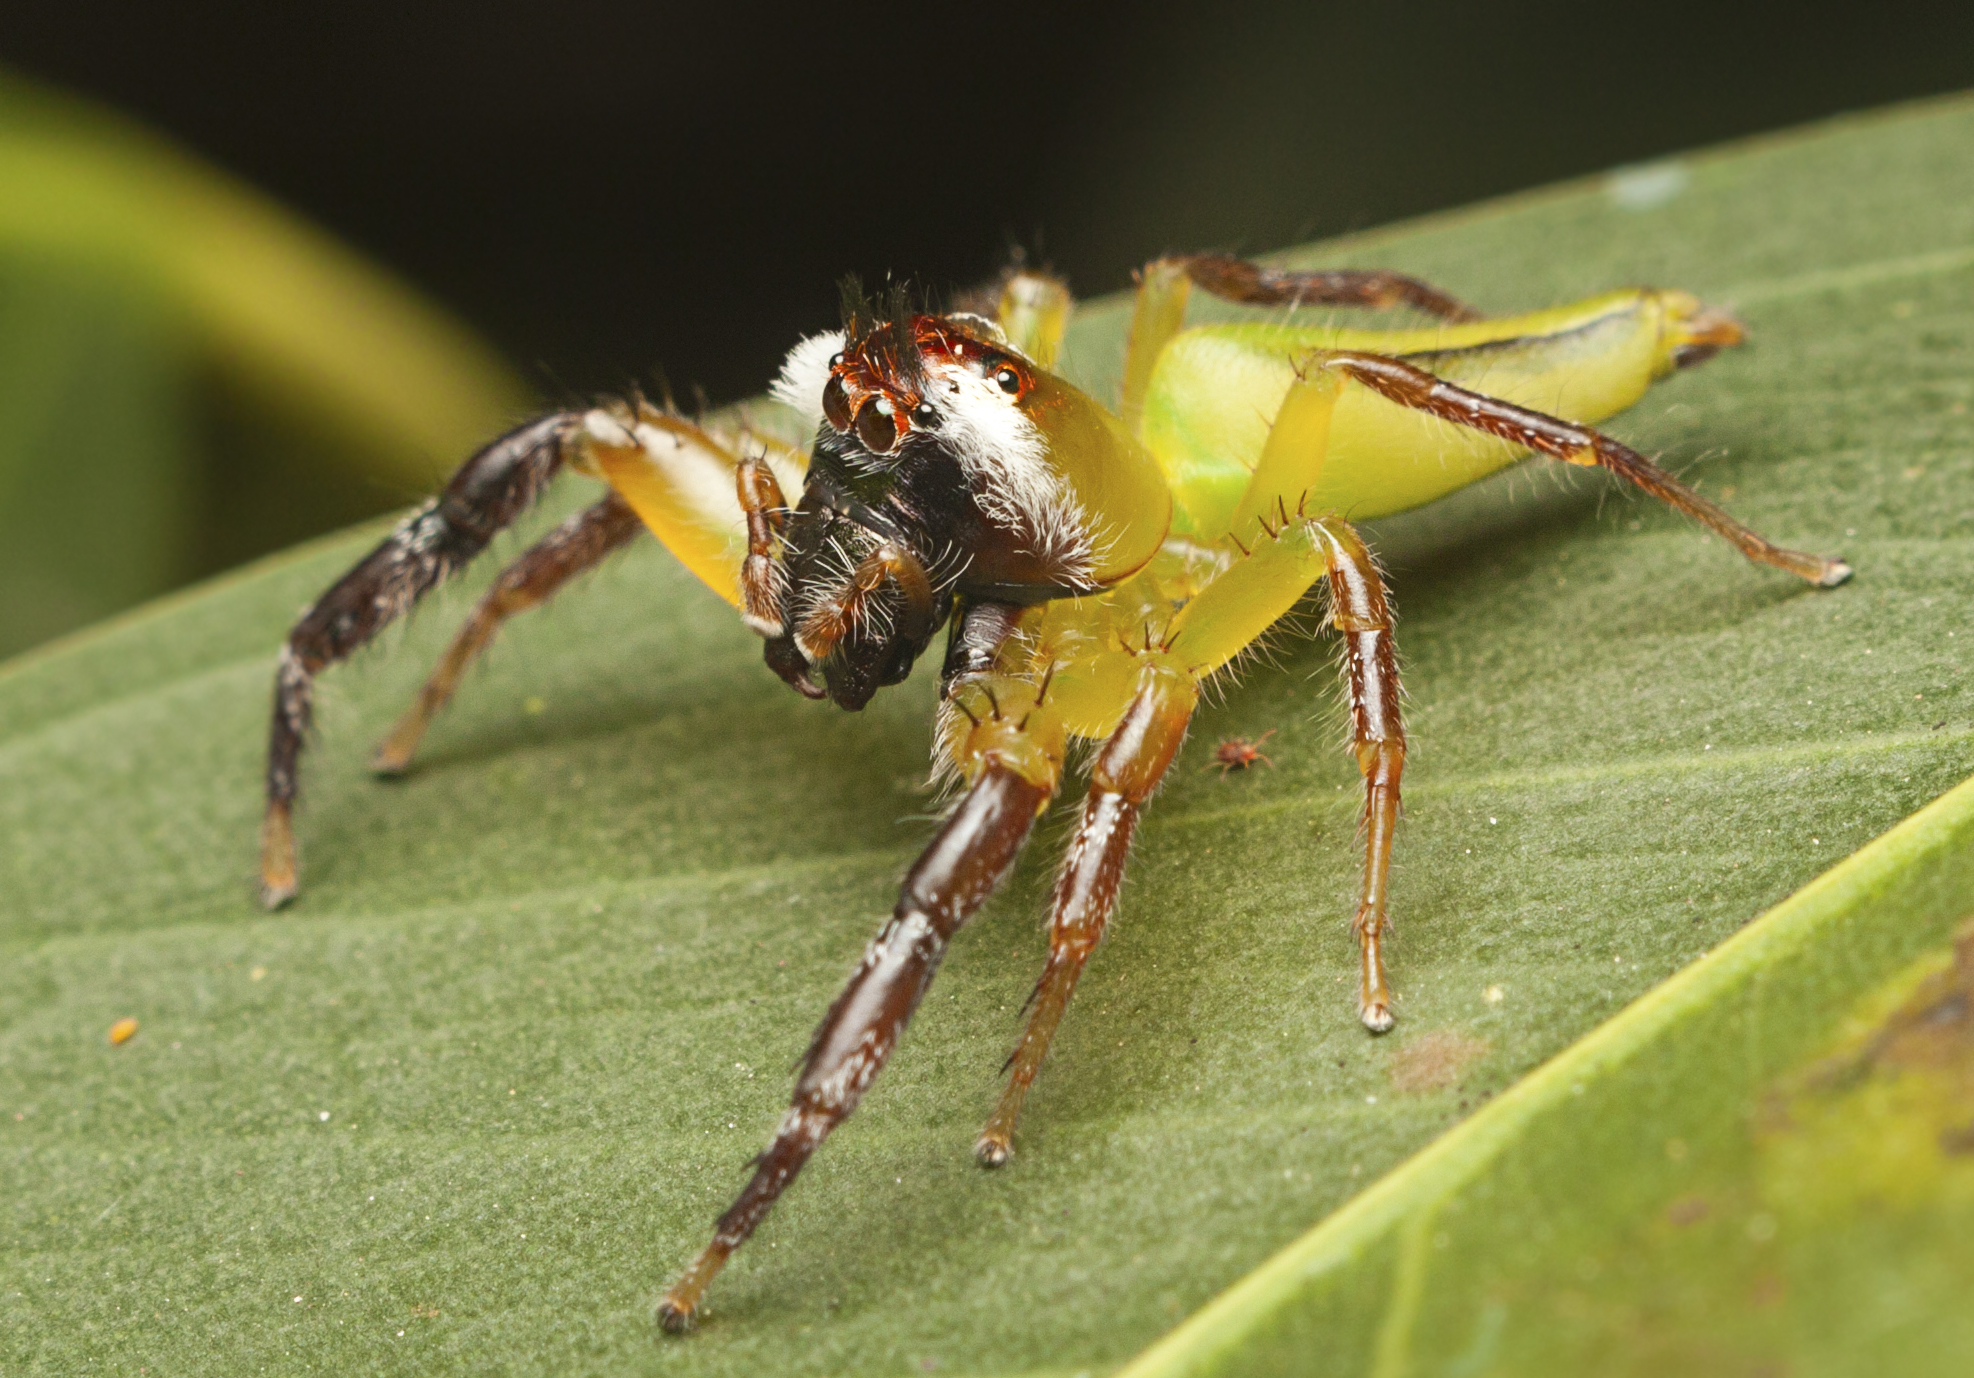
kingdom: Animalia
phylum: Arthropoda
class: Arachnida
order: Araneae
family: Salticidae
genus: Mopsus
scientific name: Mopsus mormon
